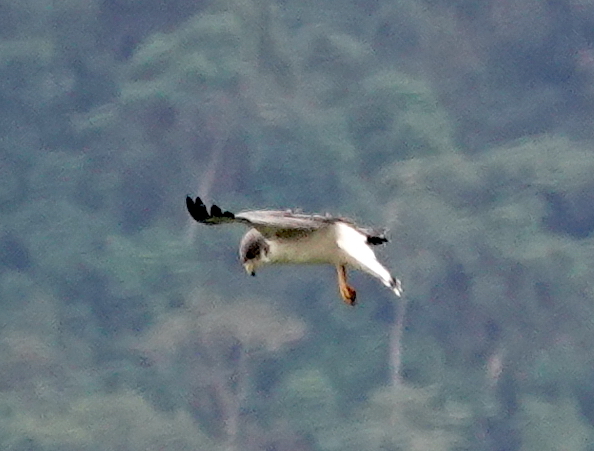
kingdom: Animalia
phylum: Chordata
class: Aves
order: Accipitriformes
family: Accipitridae
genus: Buteo
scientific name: Buteo albicaudatus
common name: White-tailed hawk
